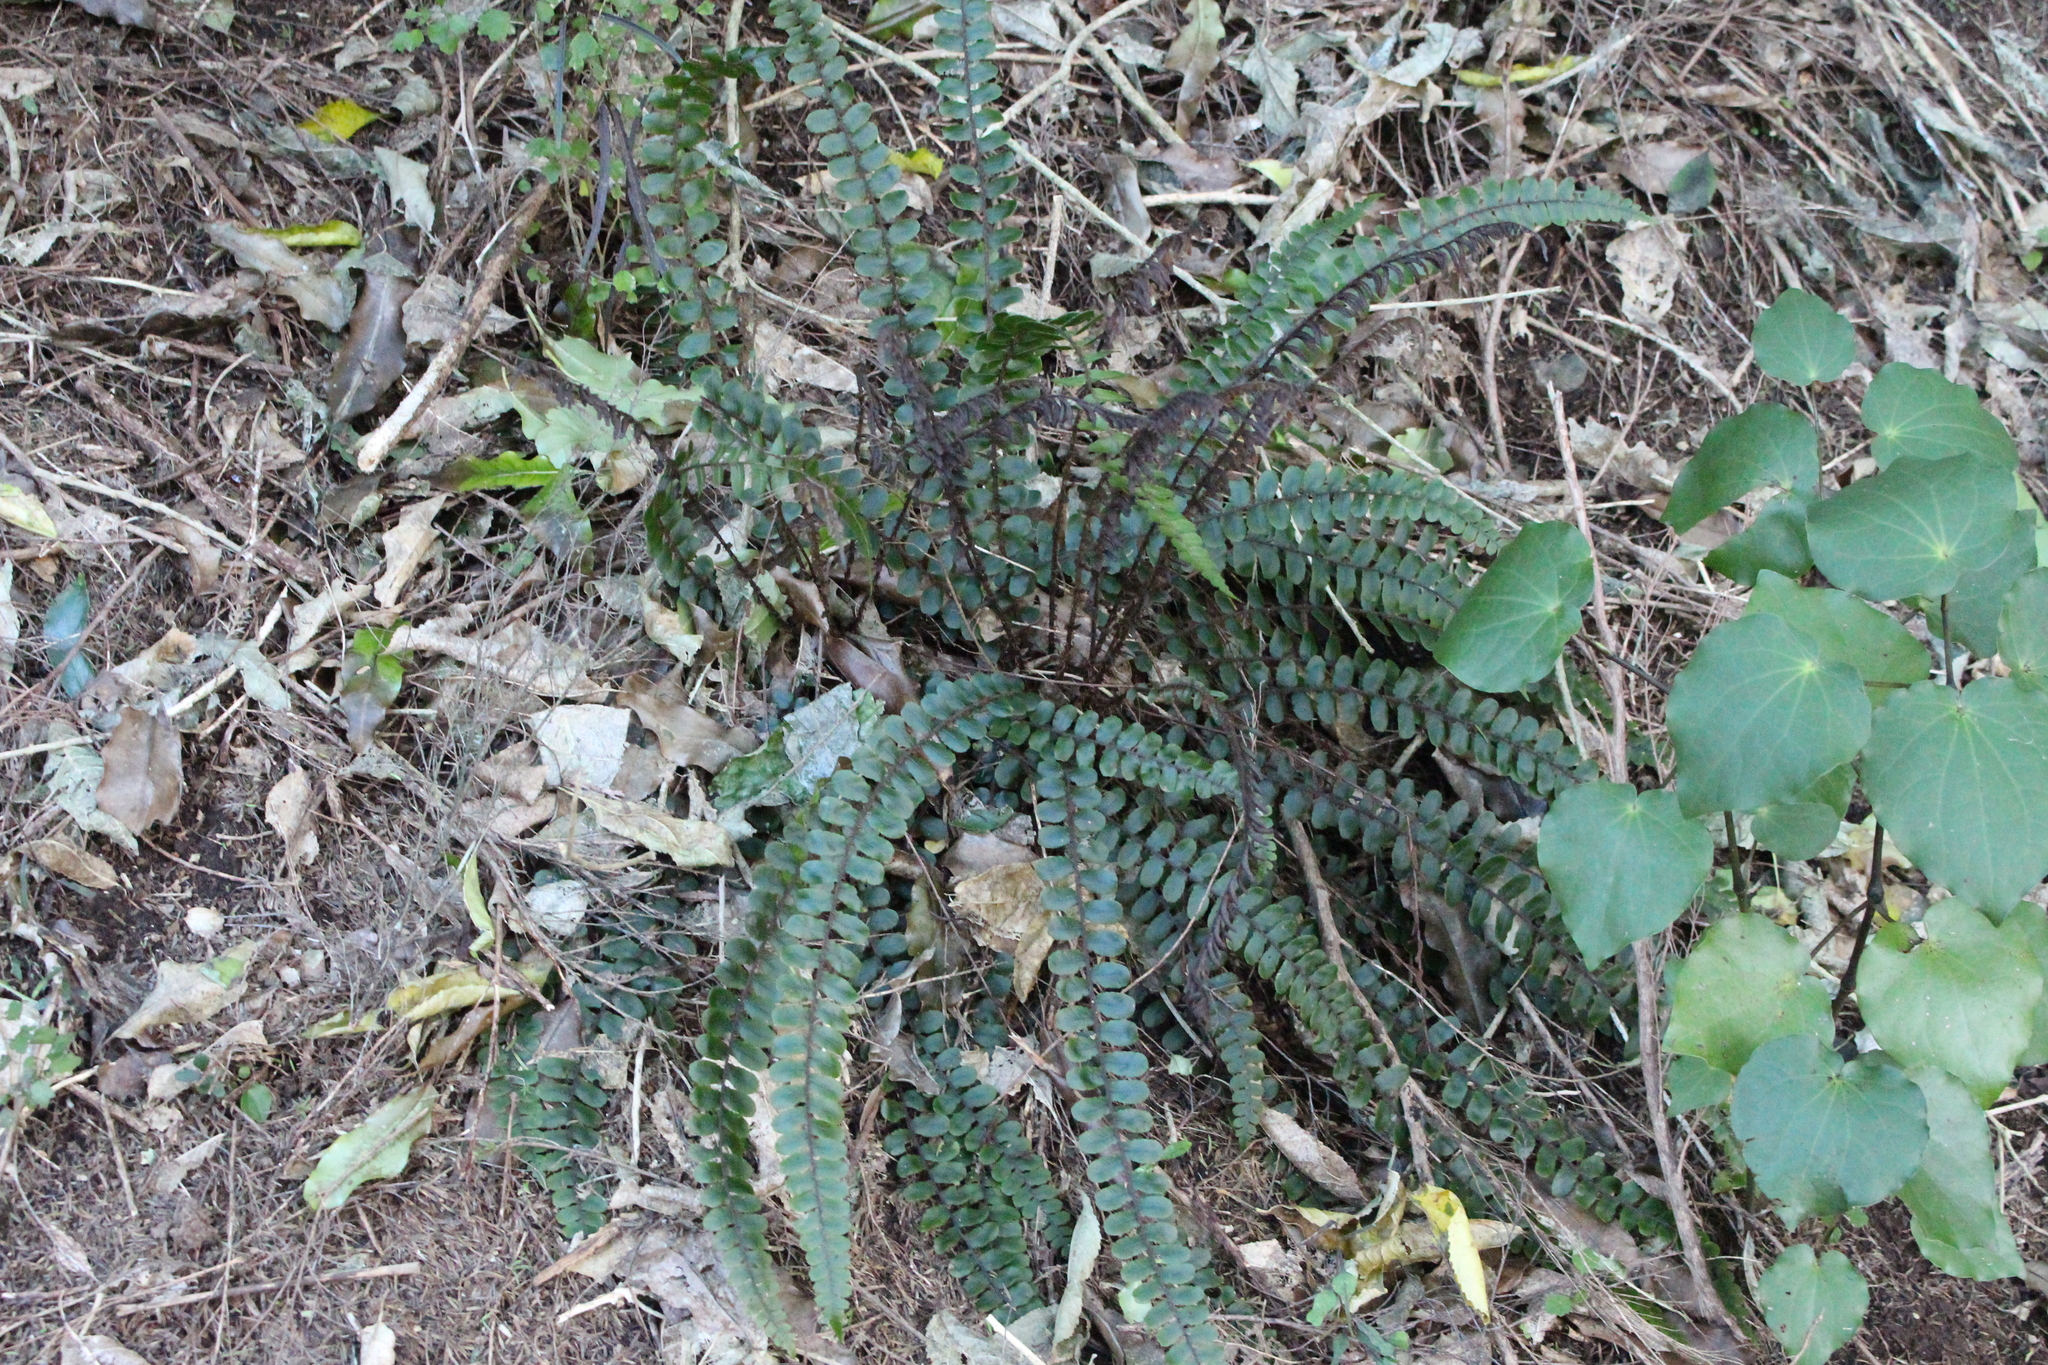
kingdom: Plantae
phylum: Tracheophyta
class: Polypodiopsida
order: Polypodiales
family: Blechnaceae
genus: Cranfillia
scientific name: Cranfillia fluviatilis
